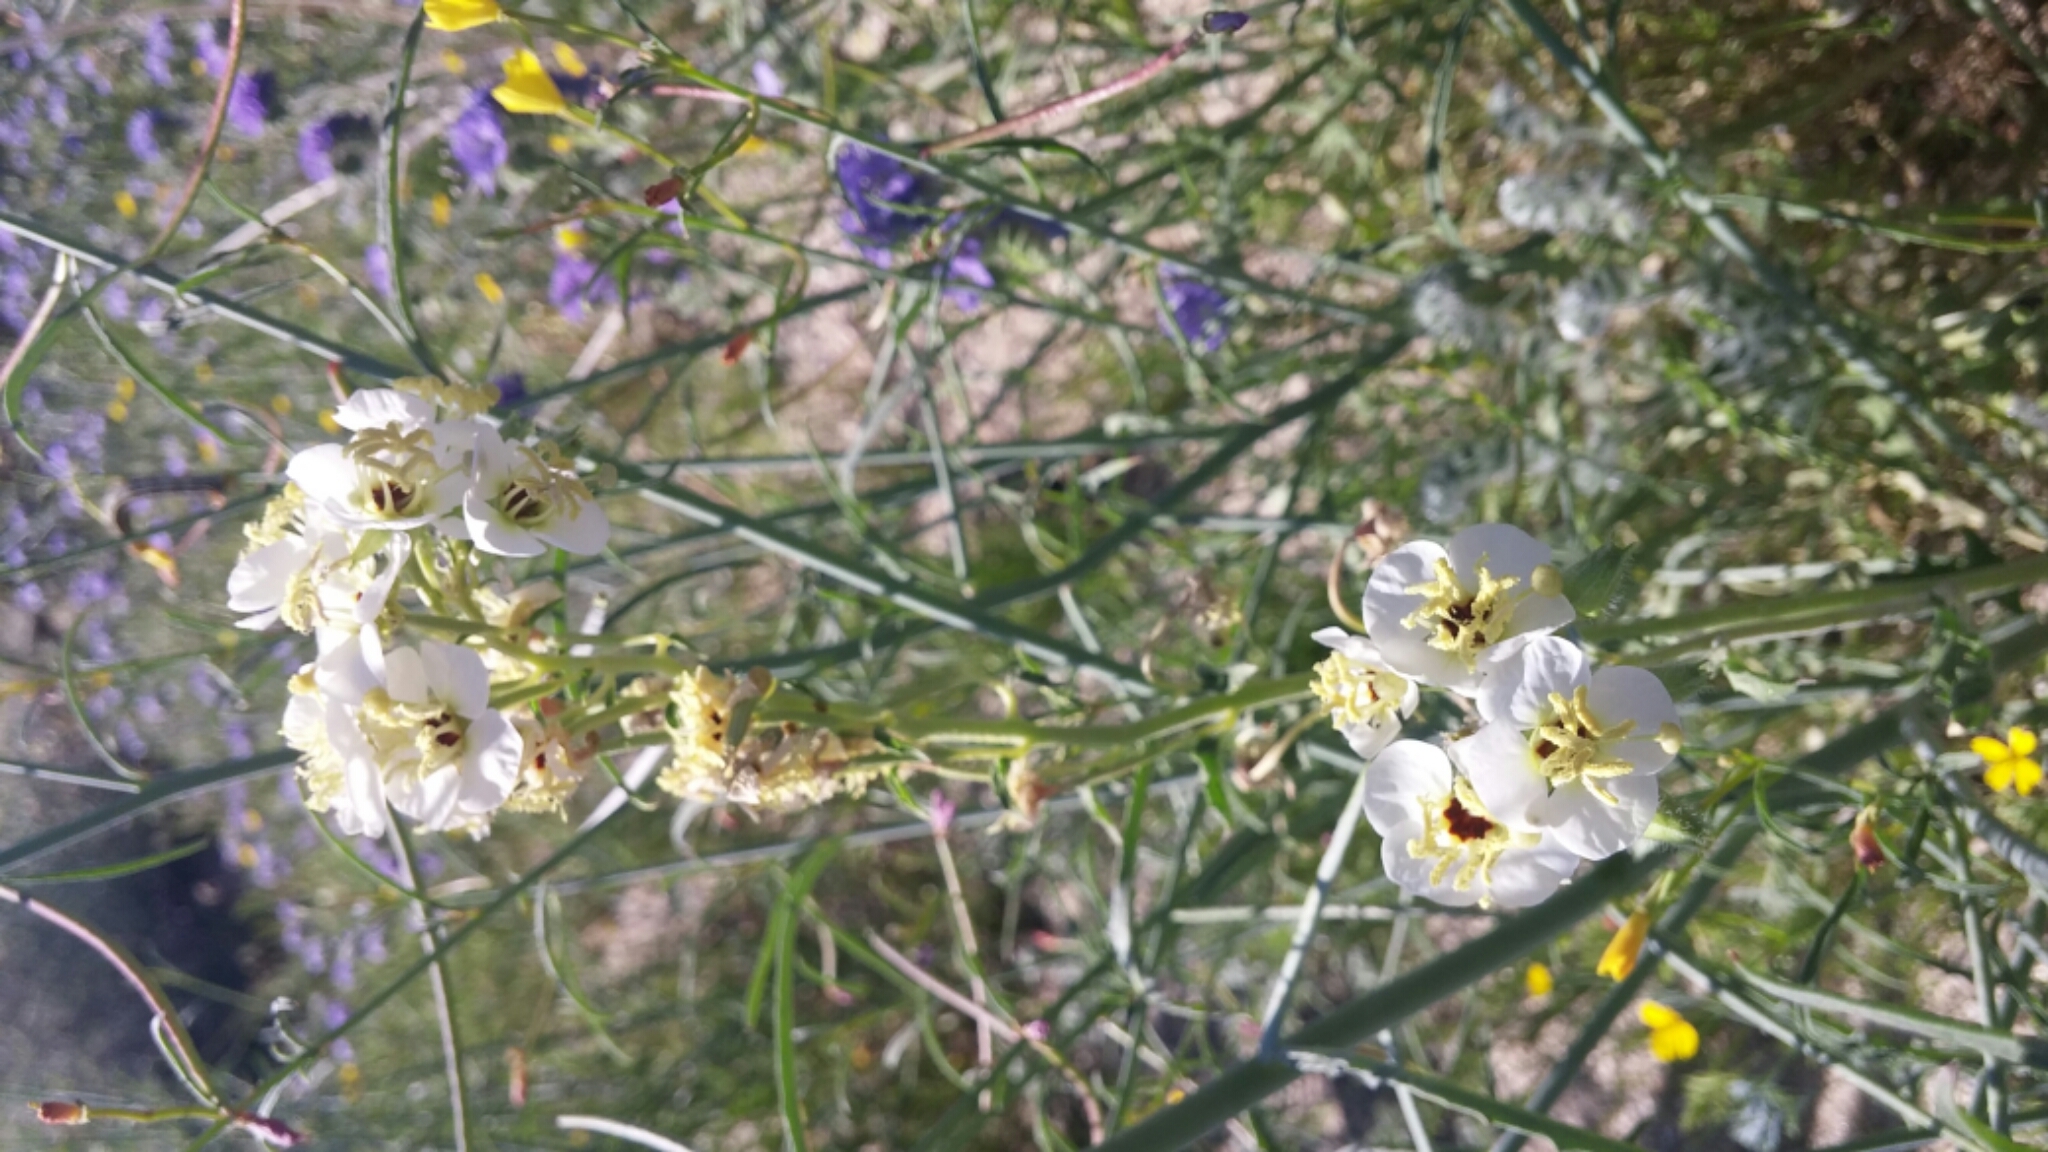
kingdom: Plantae
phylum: Tracheophyta
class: Magnoliopsida
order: Myrtales
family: Onagraceae
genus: Chylismia
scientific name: Chylismia claviformis
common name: Browneyes
